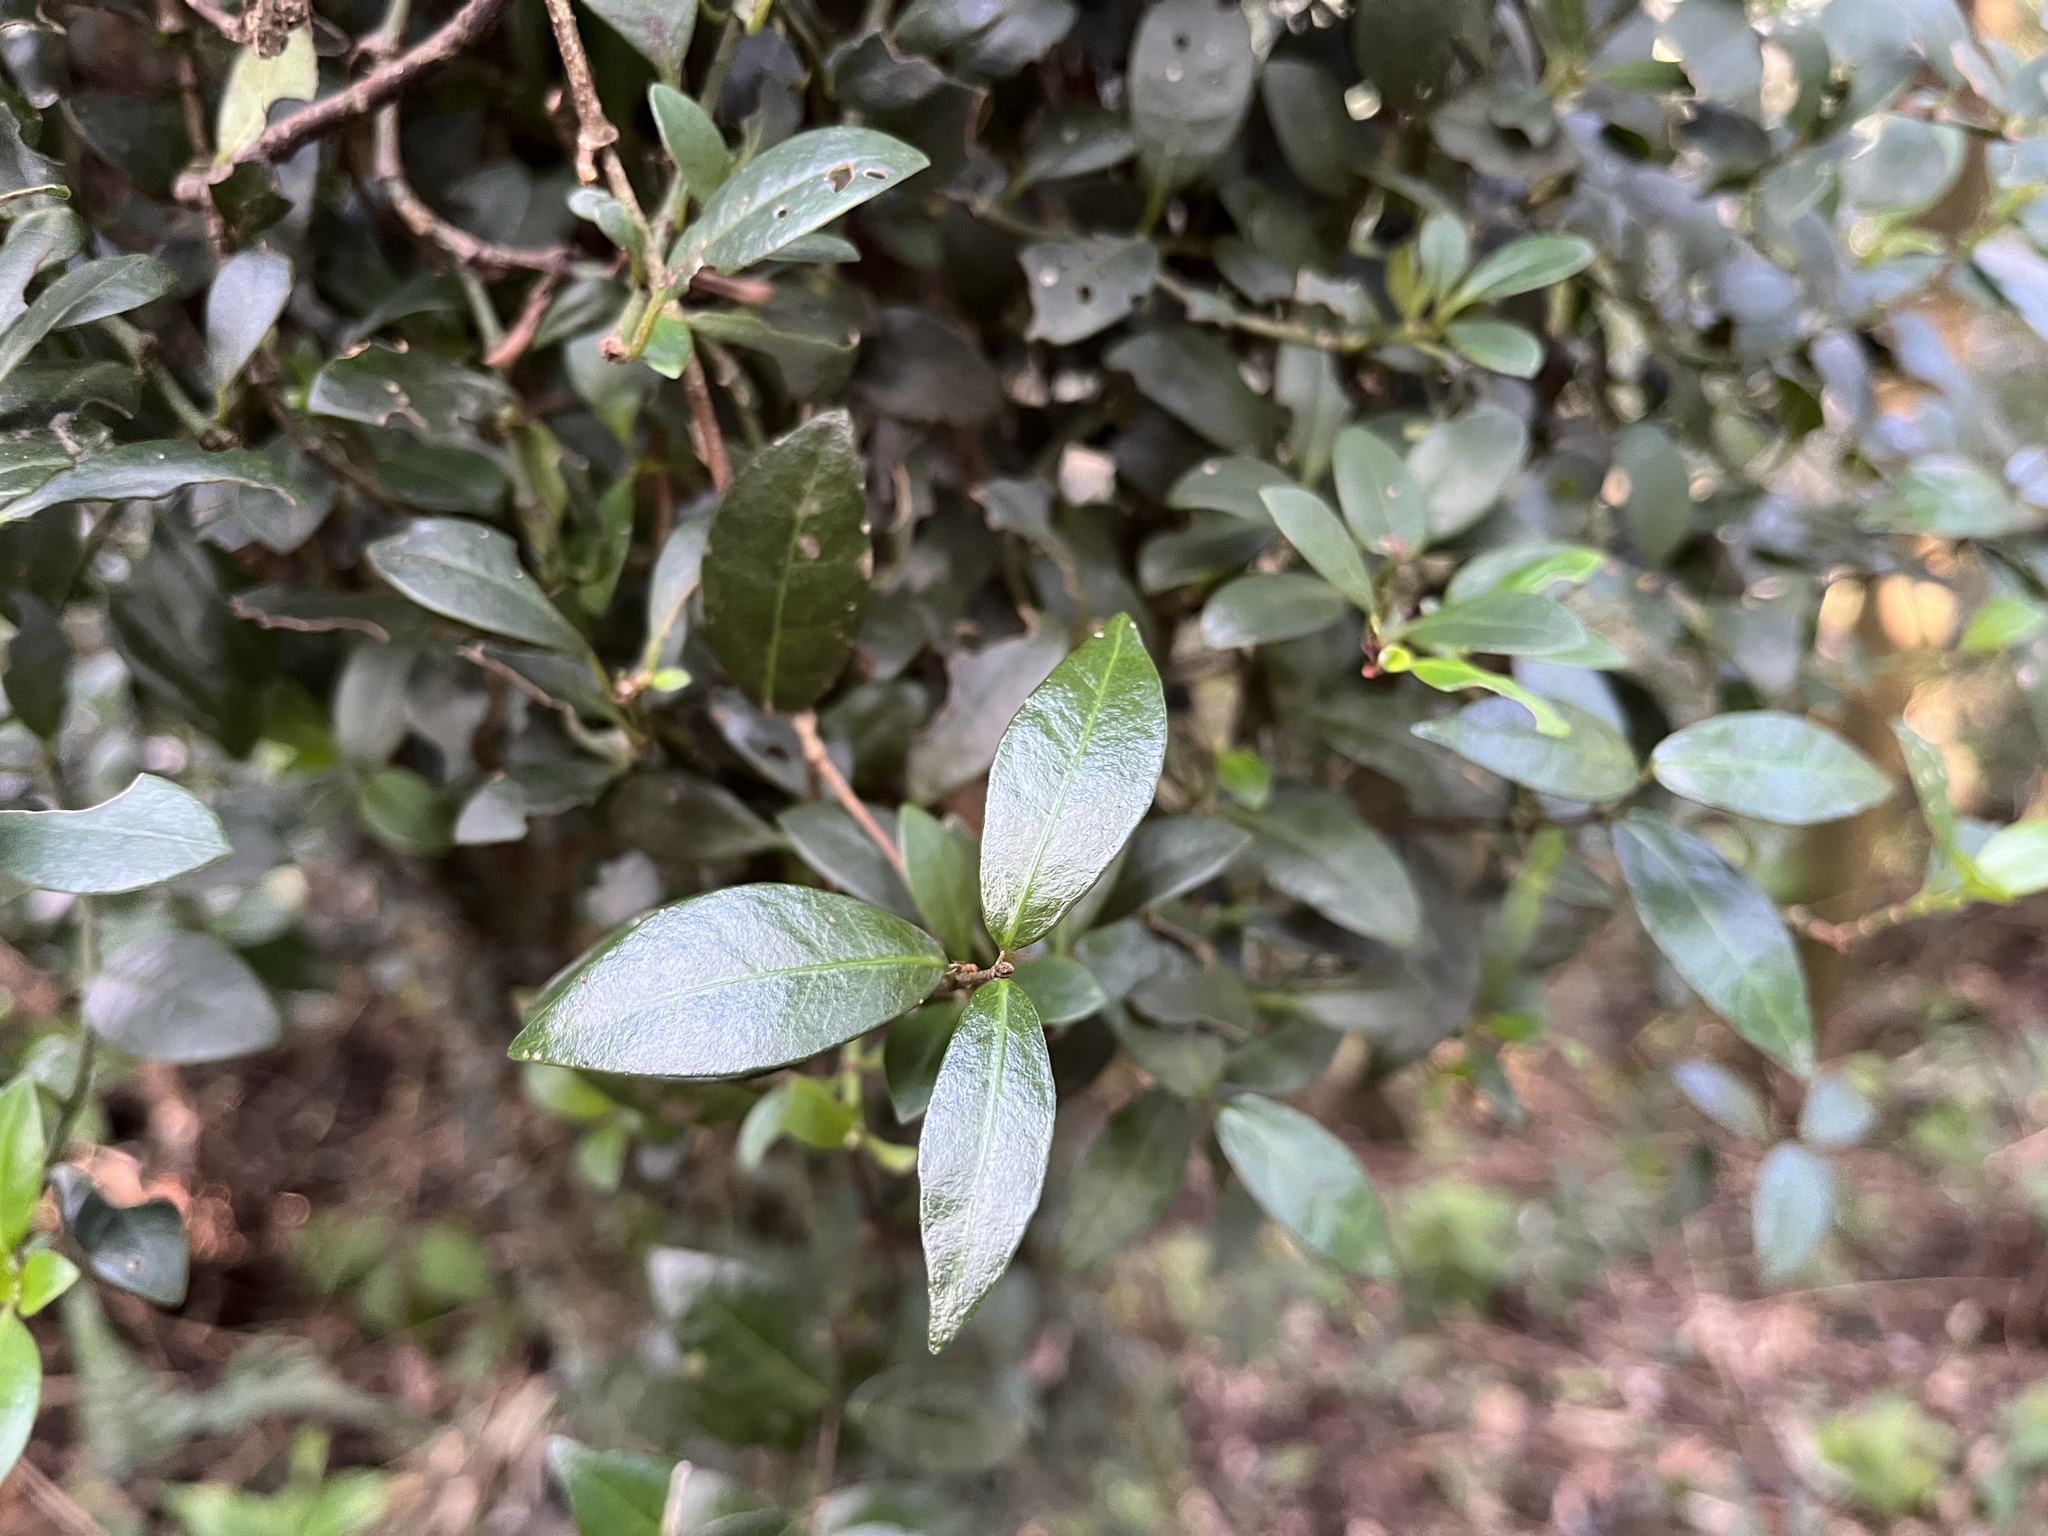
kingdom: Plantae
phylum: Tracheophyta
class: Magnoliopsida
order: Gentianales
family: Rubiaceae
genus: Psychotria
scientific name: Psychotria serpens
